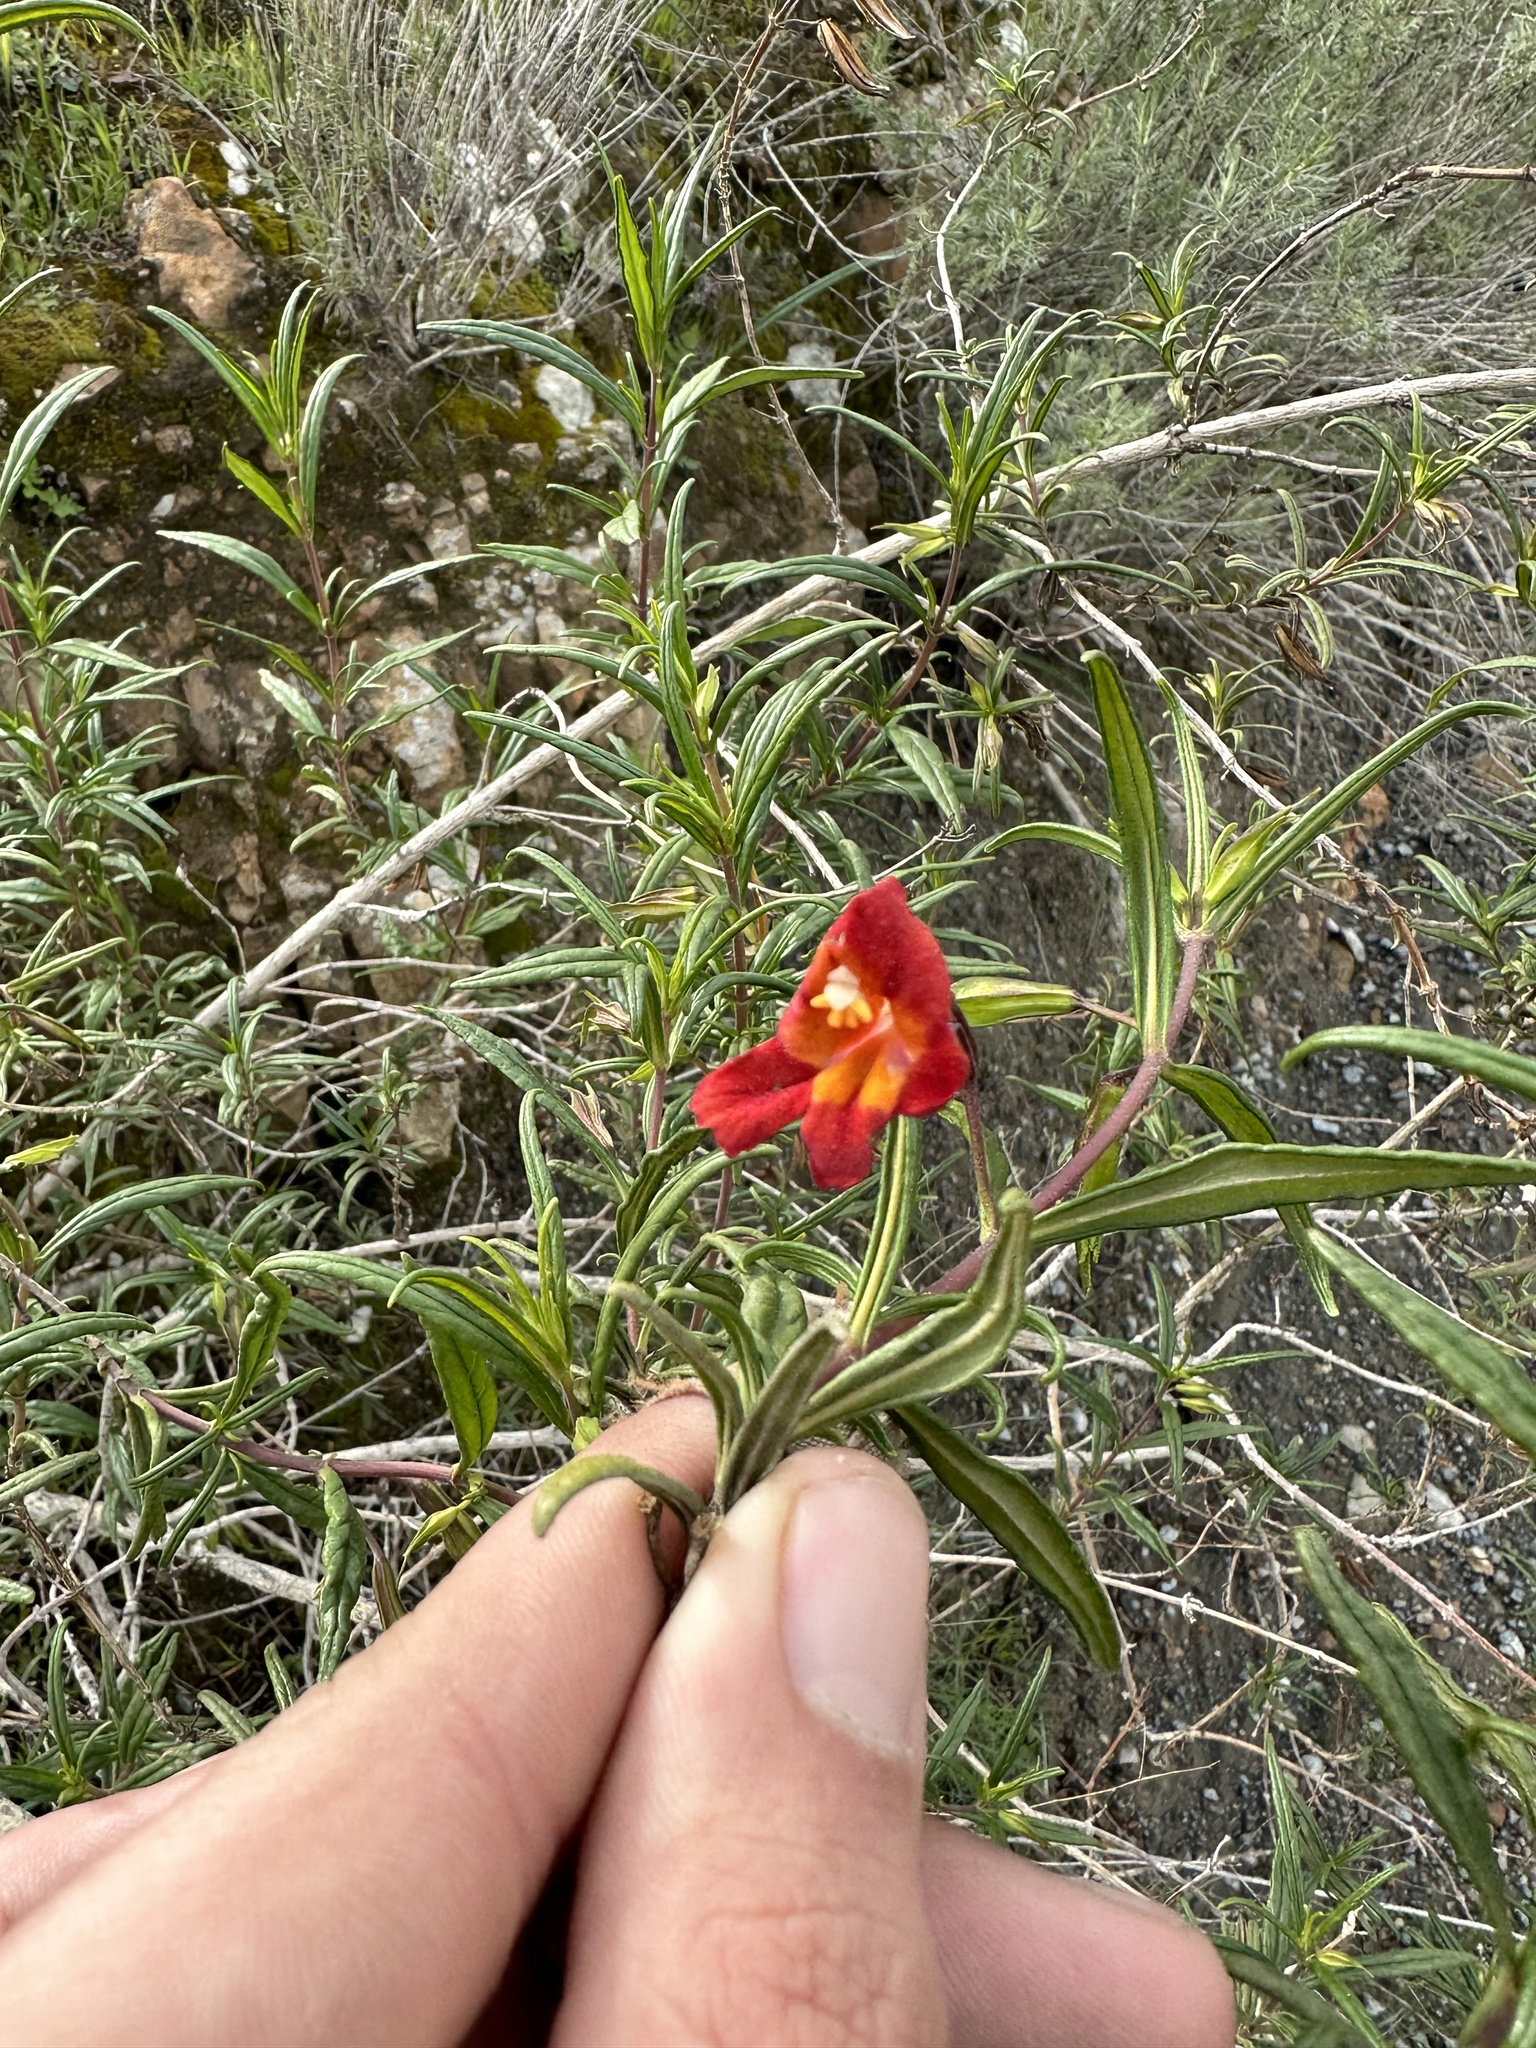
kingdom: Plantae
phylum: Tracheophyta
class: Magnoliopsida
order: Lamiales
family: Phrymaceae
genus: Diplacus
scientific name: Diplacus puniceus
